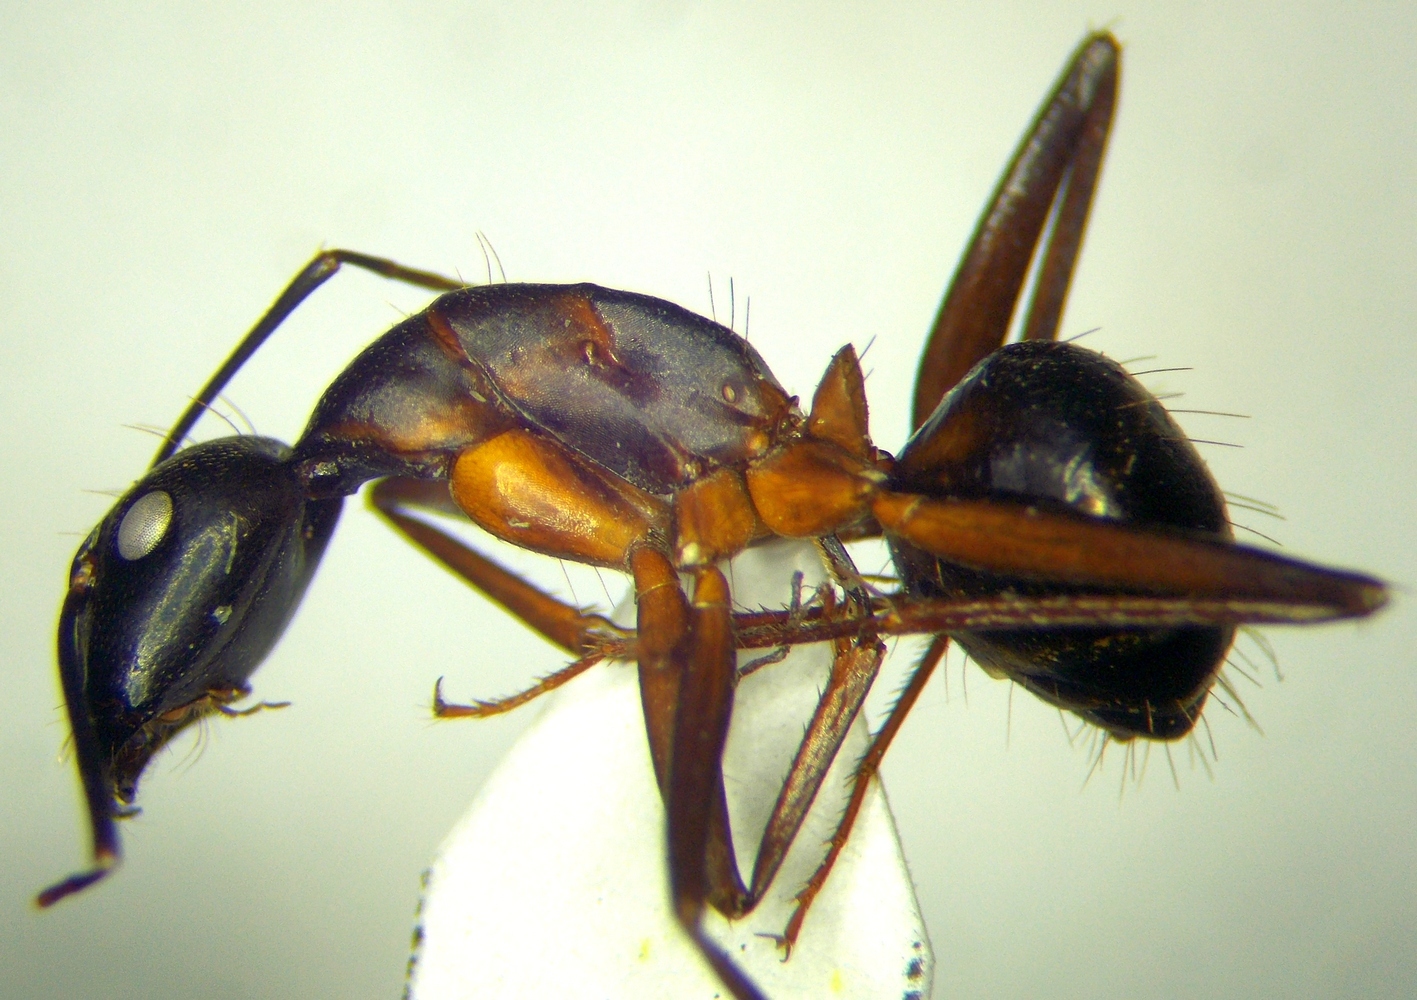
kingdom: Animalia
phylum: Arthropoda
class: Insecta
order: Hymenoptera
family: Formicidae
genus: Camponotus
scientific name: Camponotus sanctus
